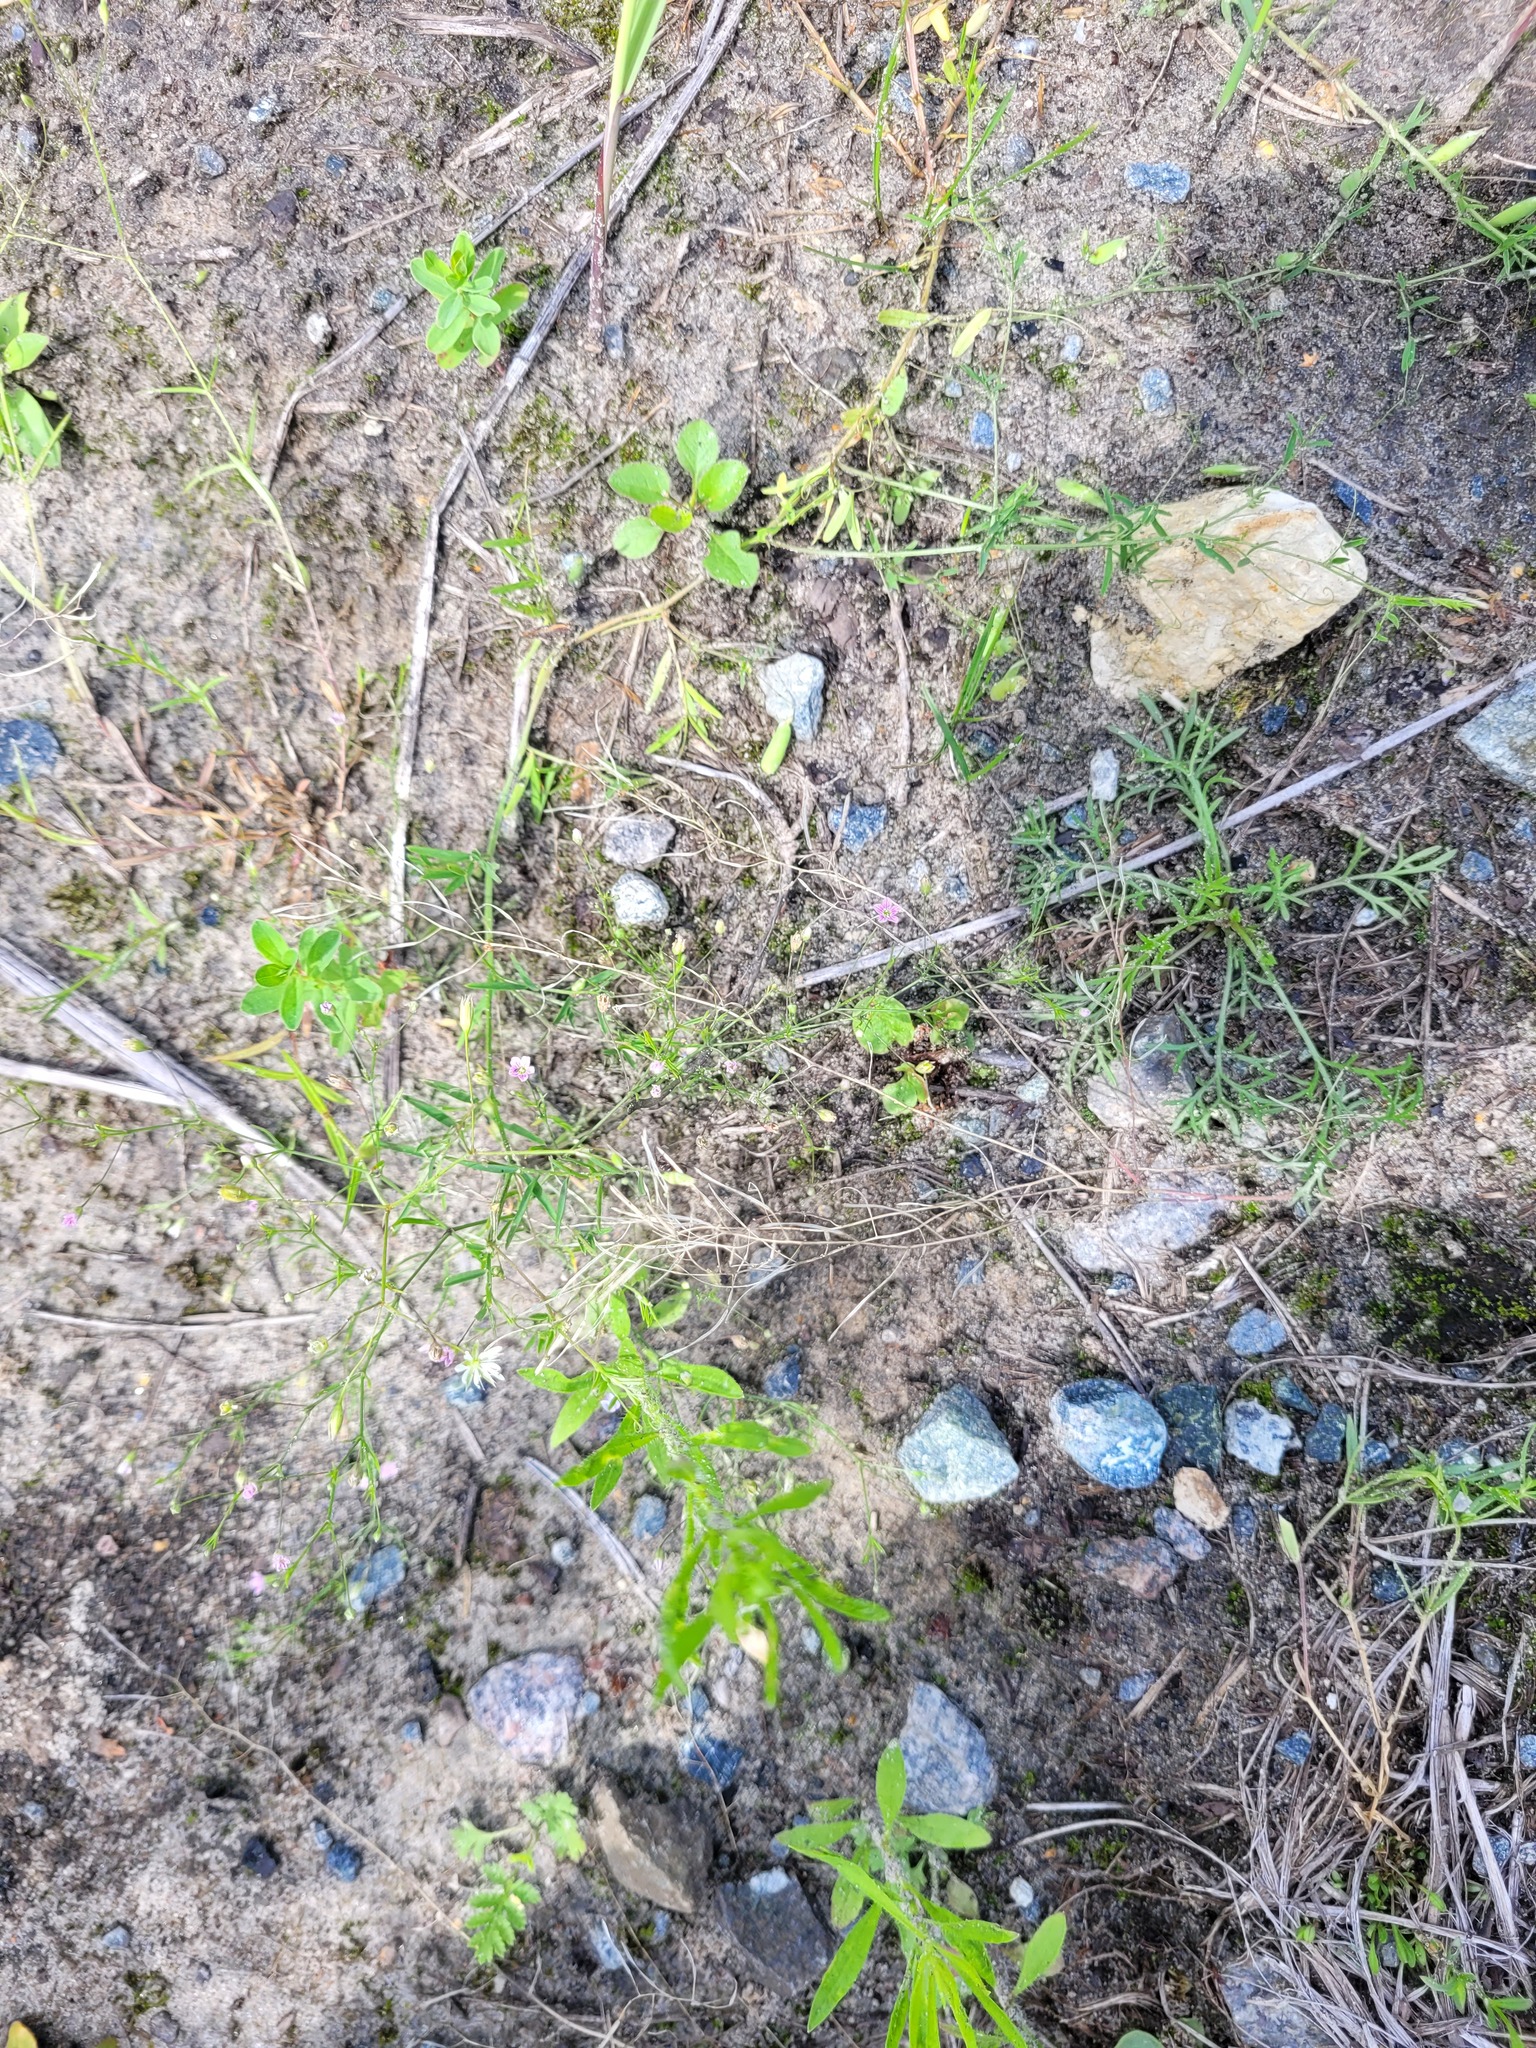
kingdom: Plantae
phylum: Tracheophyta
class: Magnoliopsida
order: Caryophyllales
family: Caryophyllaceae
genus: Psammophiliella
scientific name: Psammophiliella muralis
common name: Cushion baby's-breath
